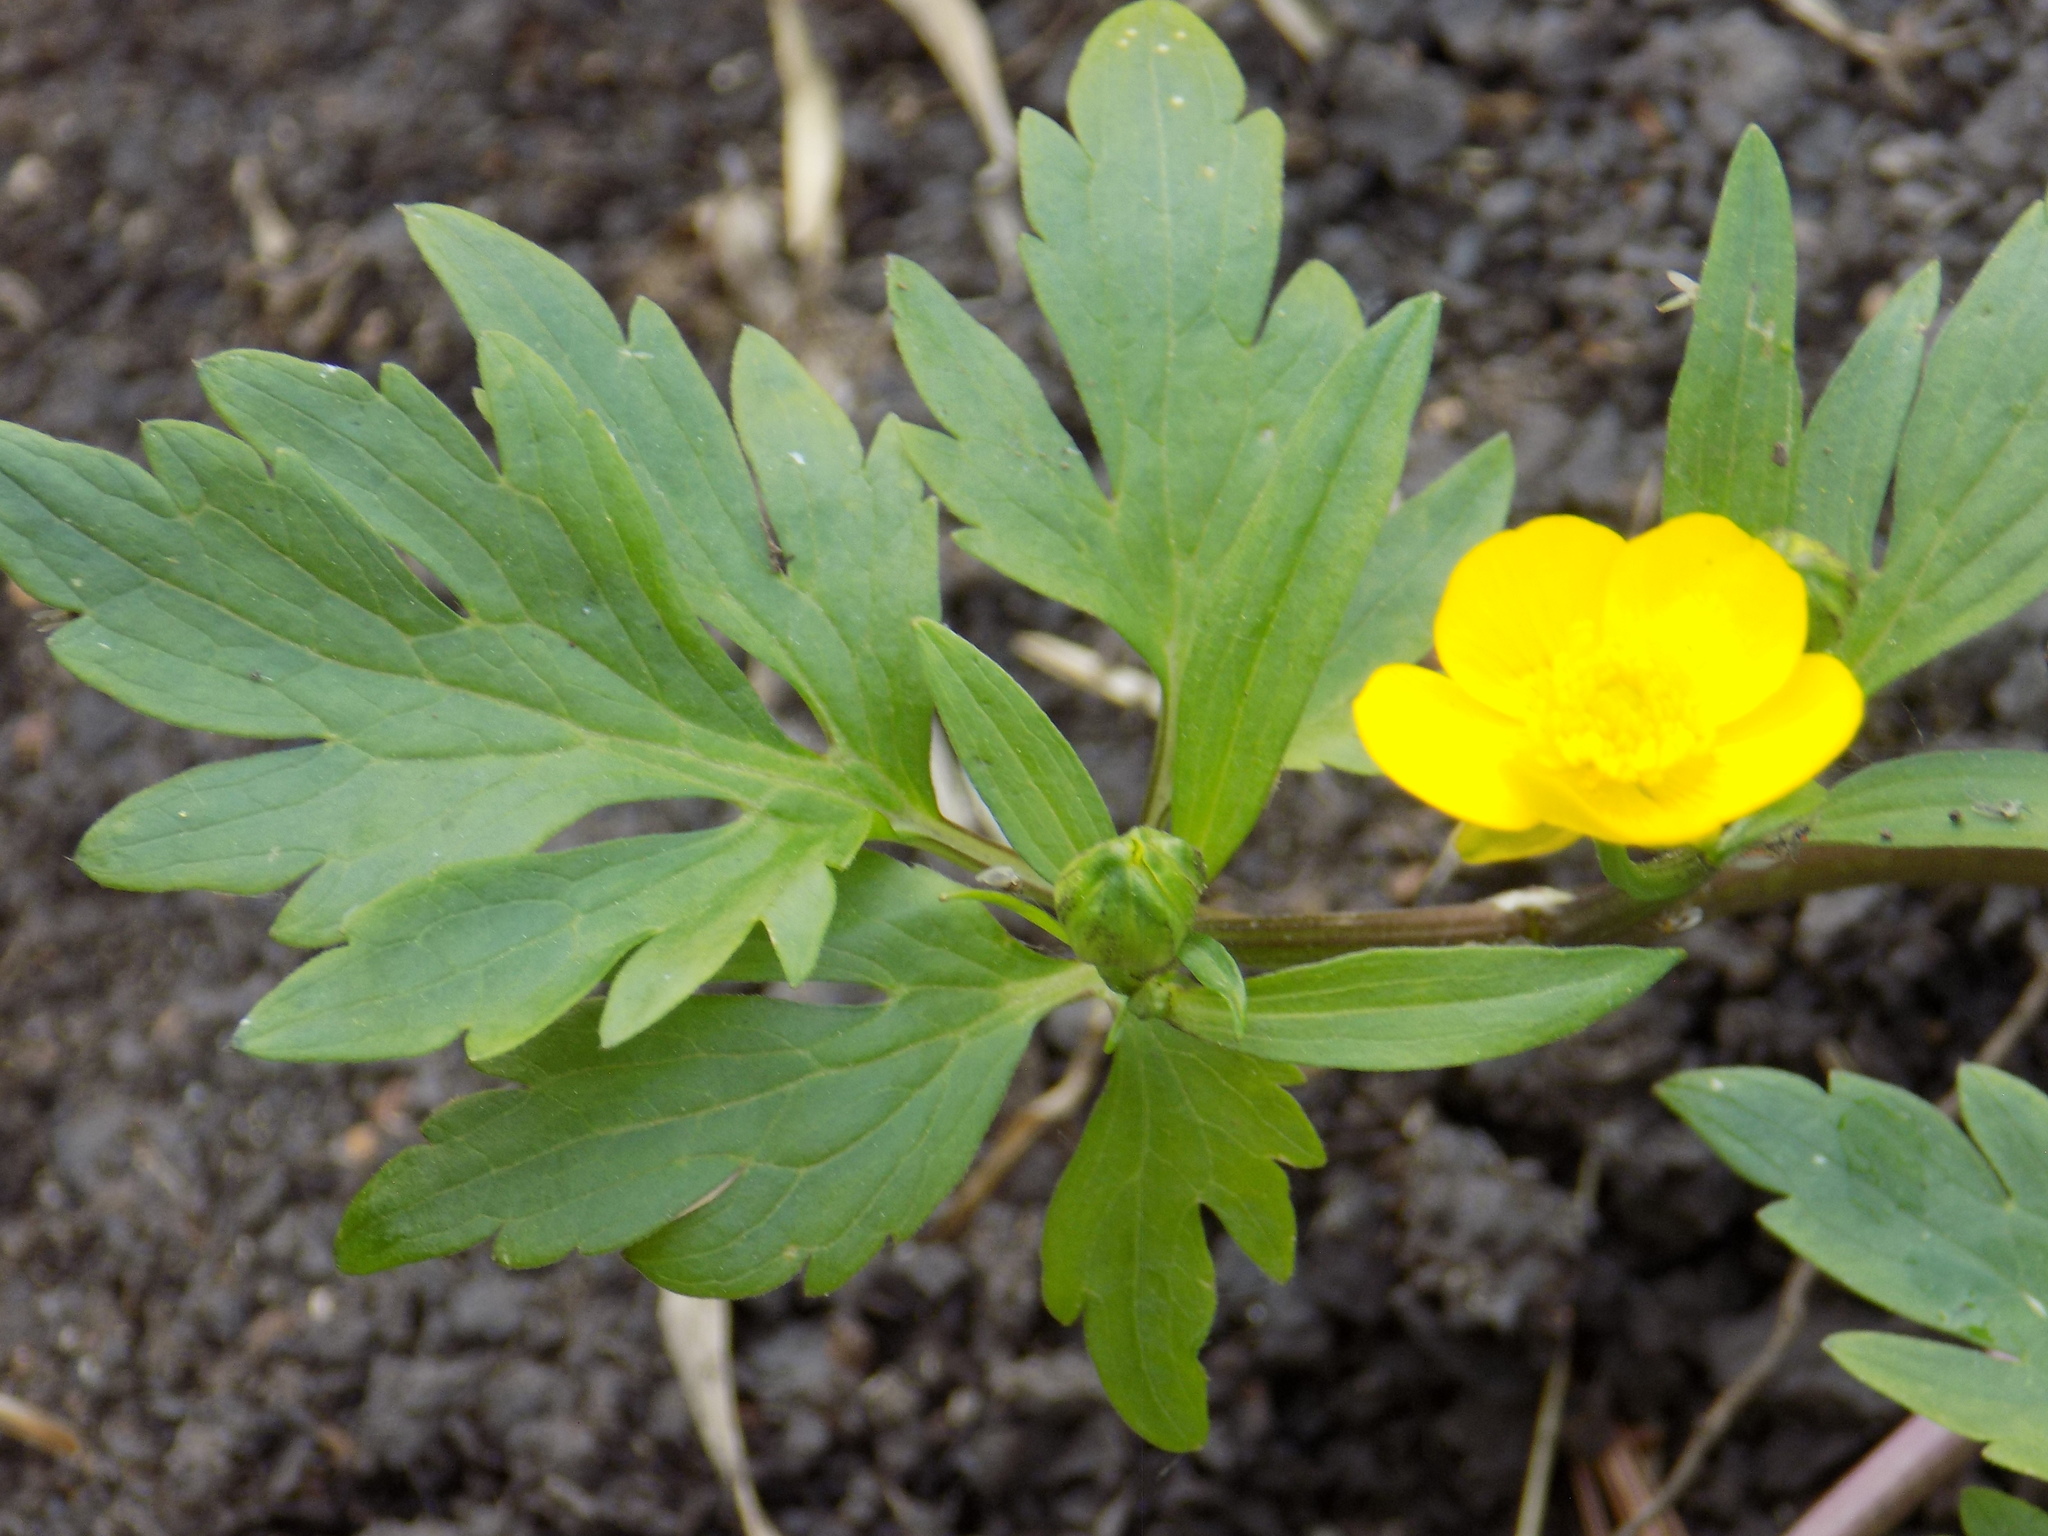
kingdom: Plantae
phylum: Tracheophyta
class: Magnoliopsida
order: Ranunculales
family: Ranunculaceae
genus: Ranunculus
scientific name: Ranunculus repens
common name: Creeping buttercup
